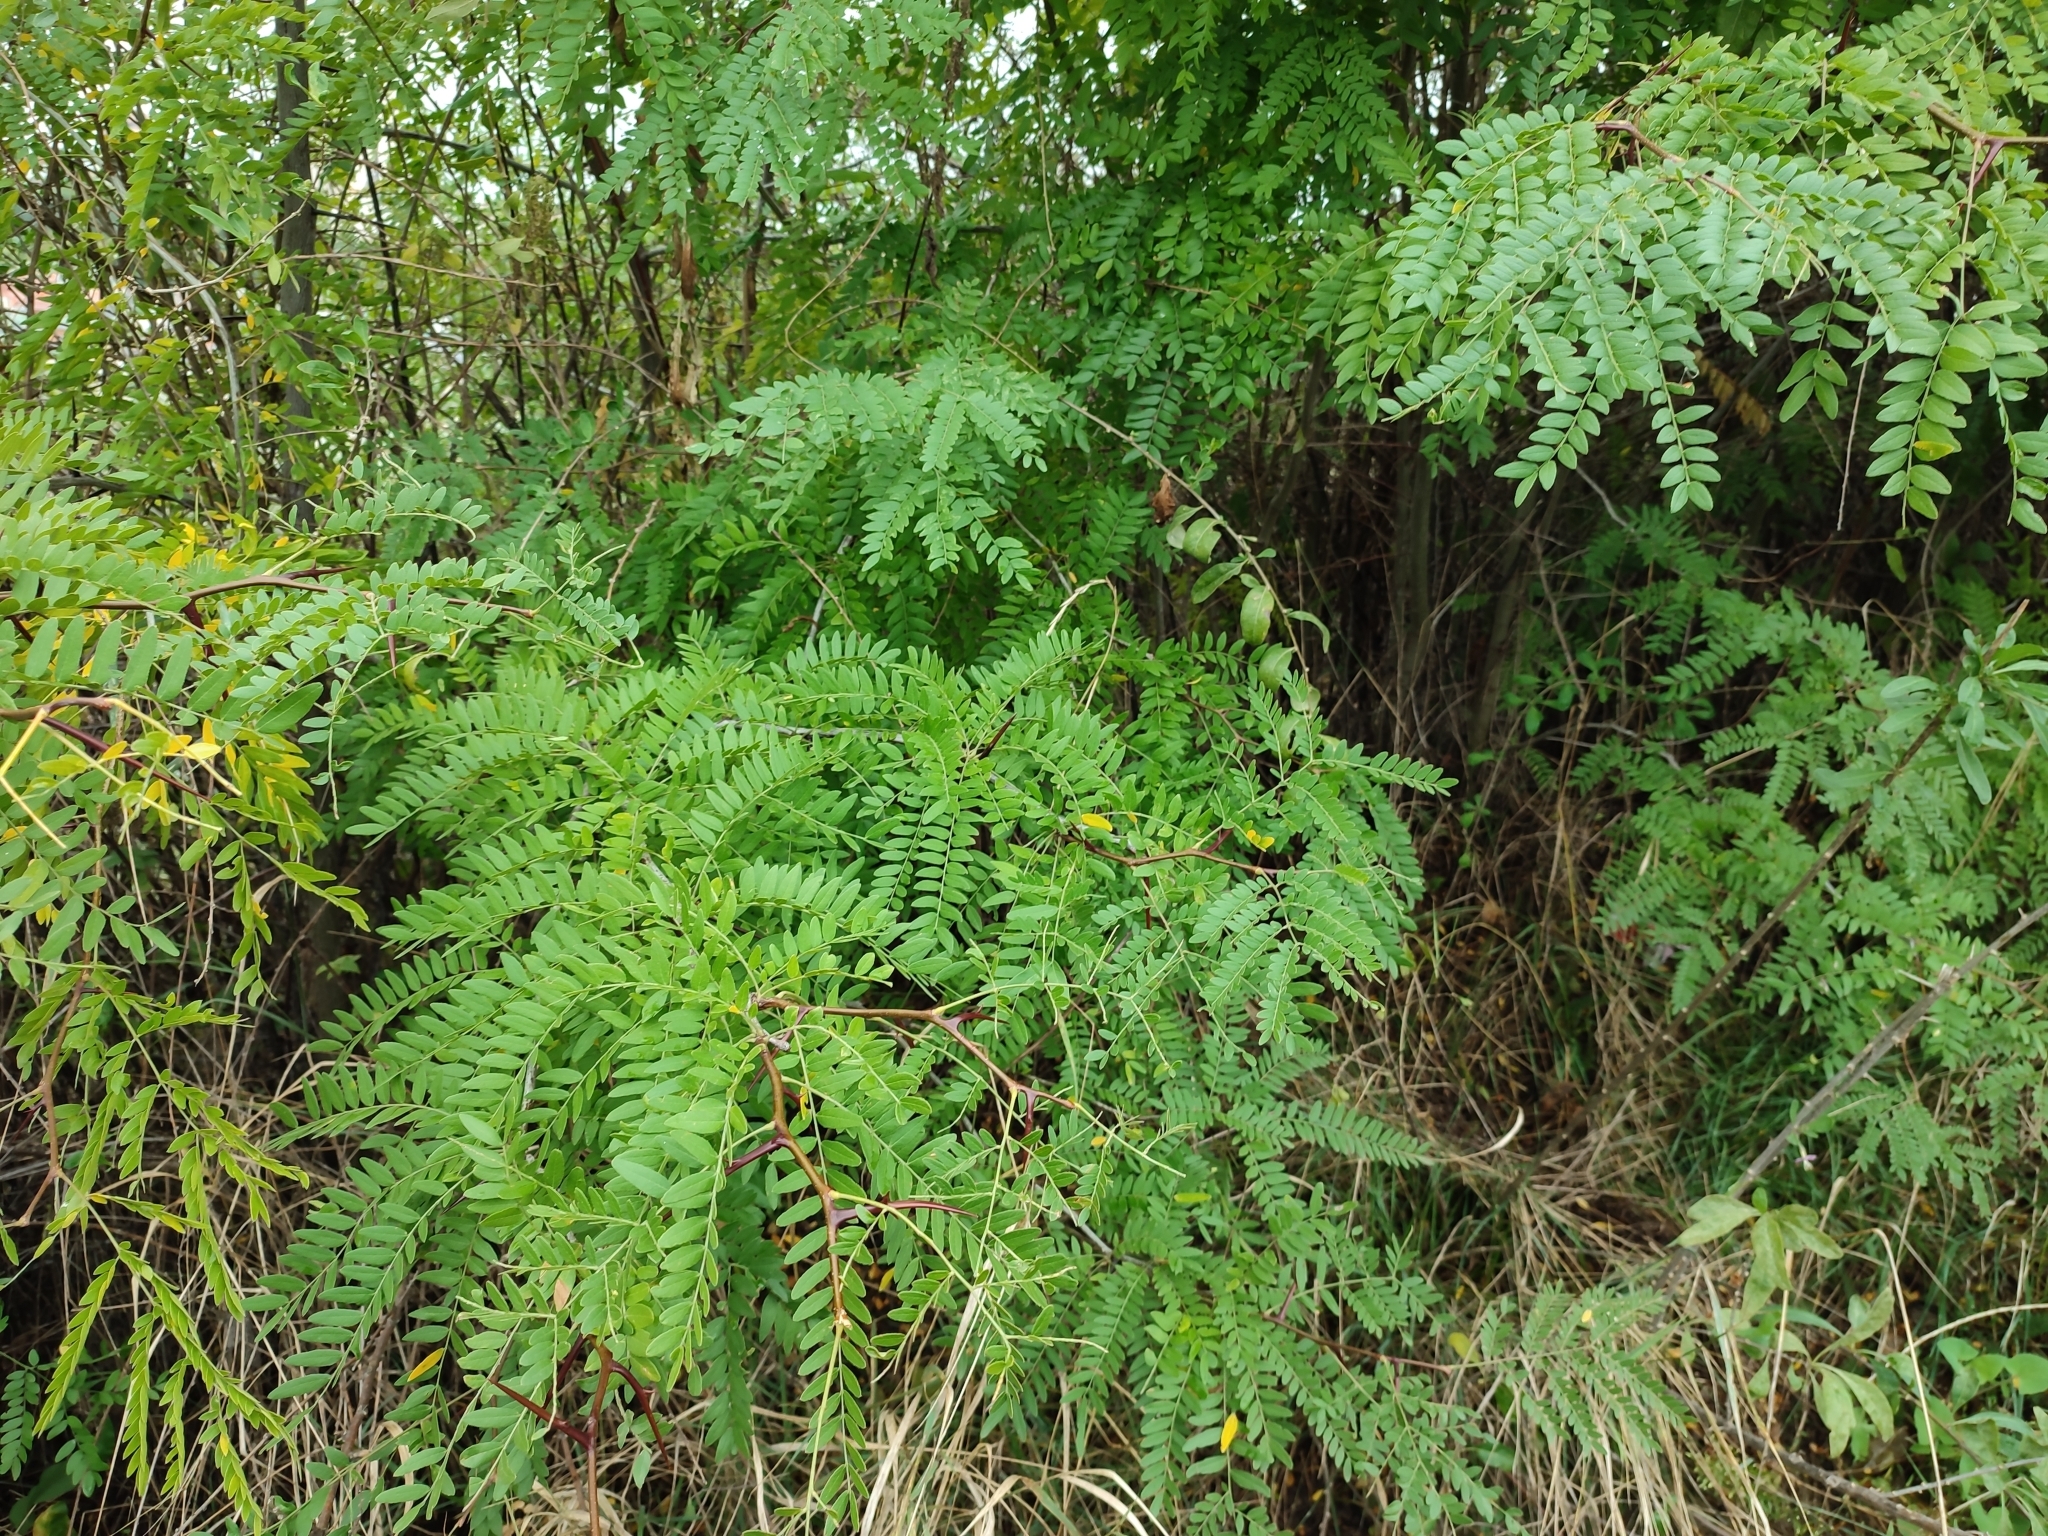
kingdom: Plantae
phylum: Tracheophyta
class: Magnoliopsida
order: Fabales
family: Fabaceae
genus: Gleditsia
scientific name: Gleditsia triacanthos
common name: Common honeylocust
